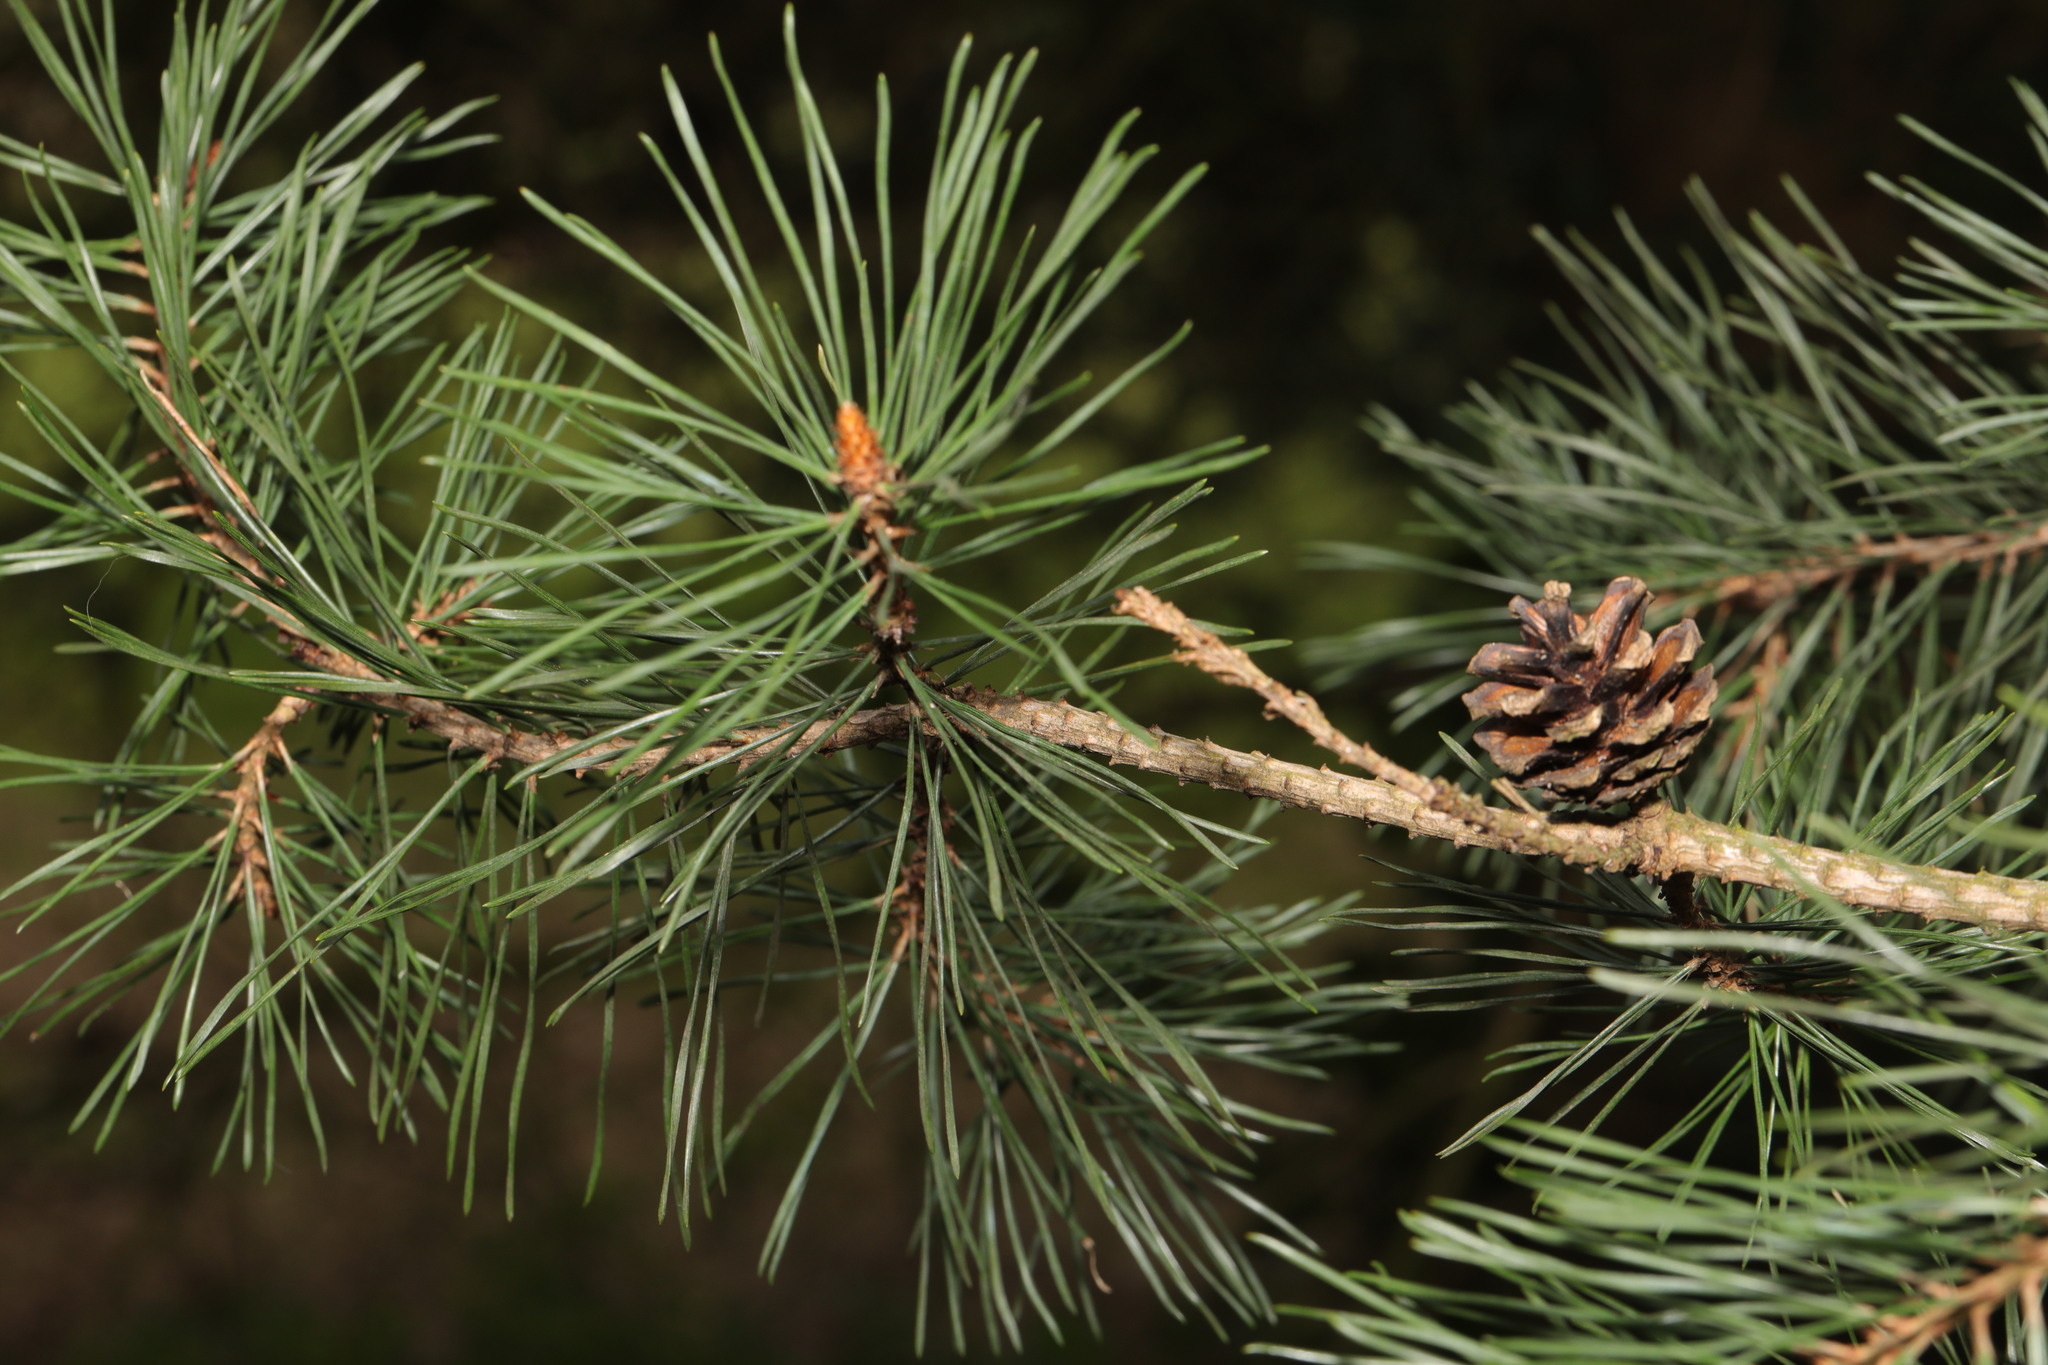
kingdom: Plantae
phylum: Tracheophyta
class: Pinopsida
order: Pinales
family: Pinaceae
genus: Pinus
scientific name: Pinus sylvestris
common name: Scots pine
